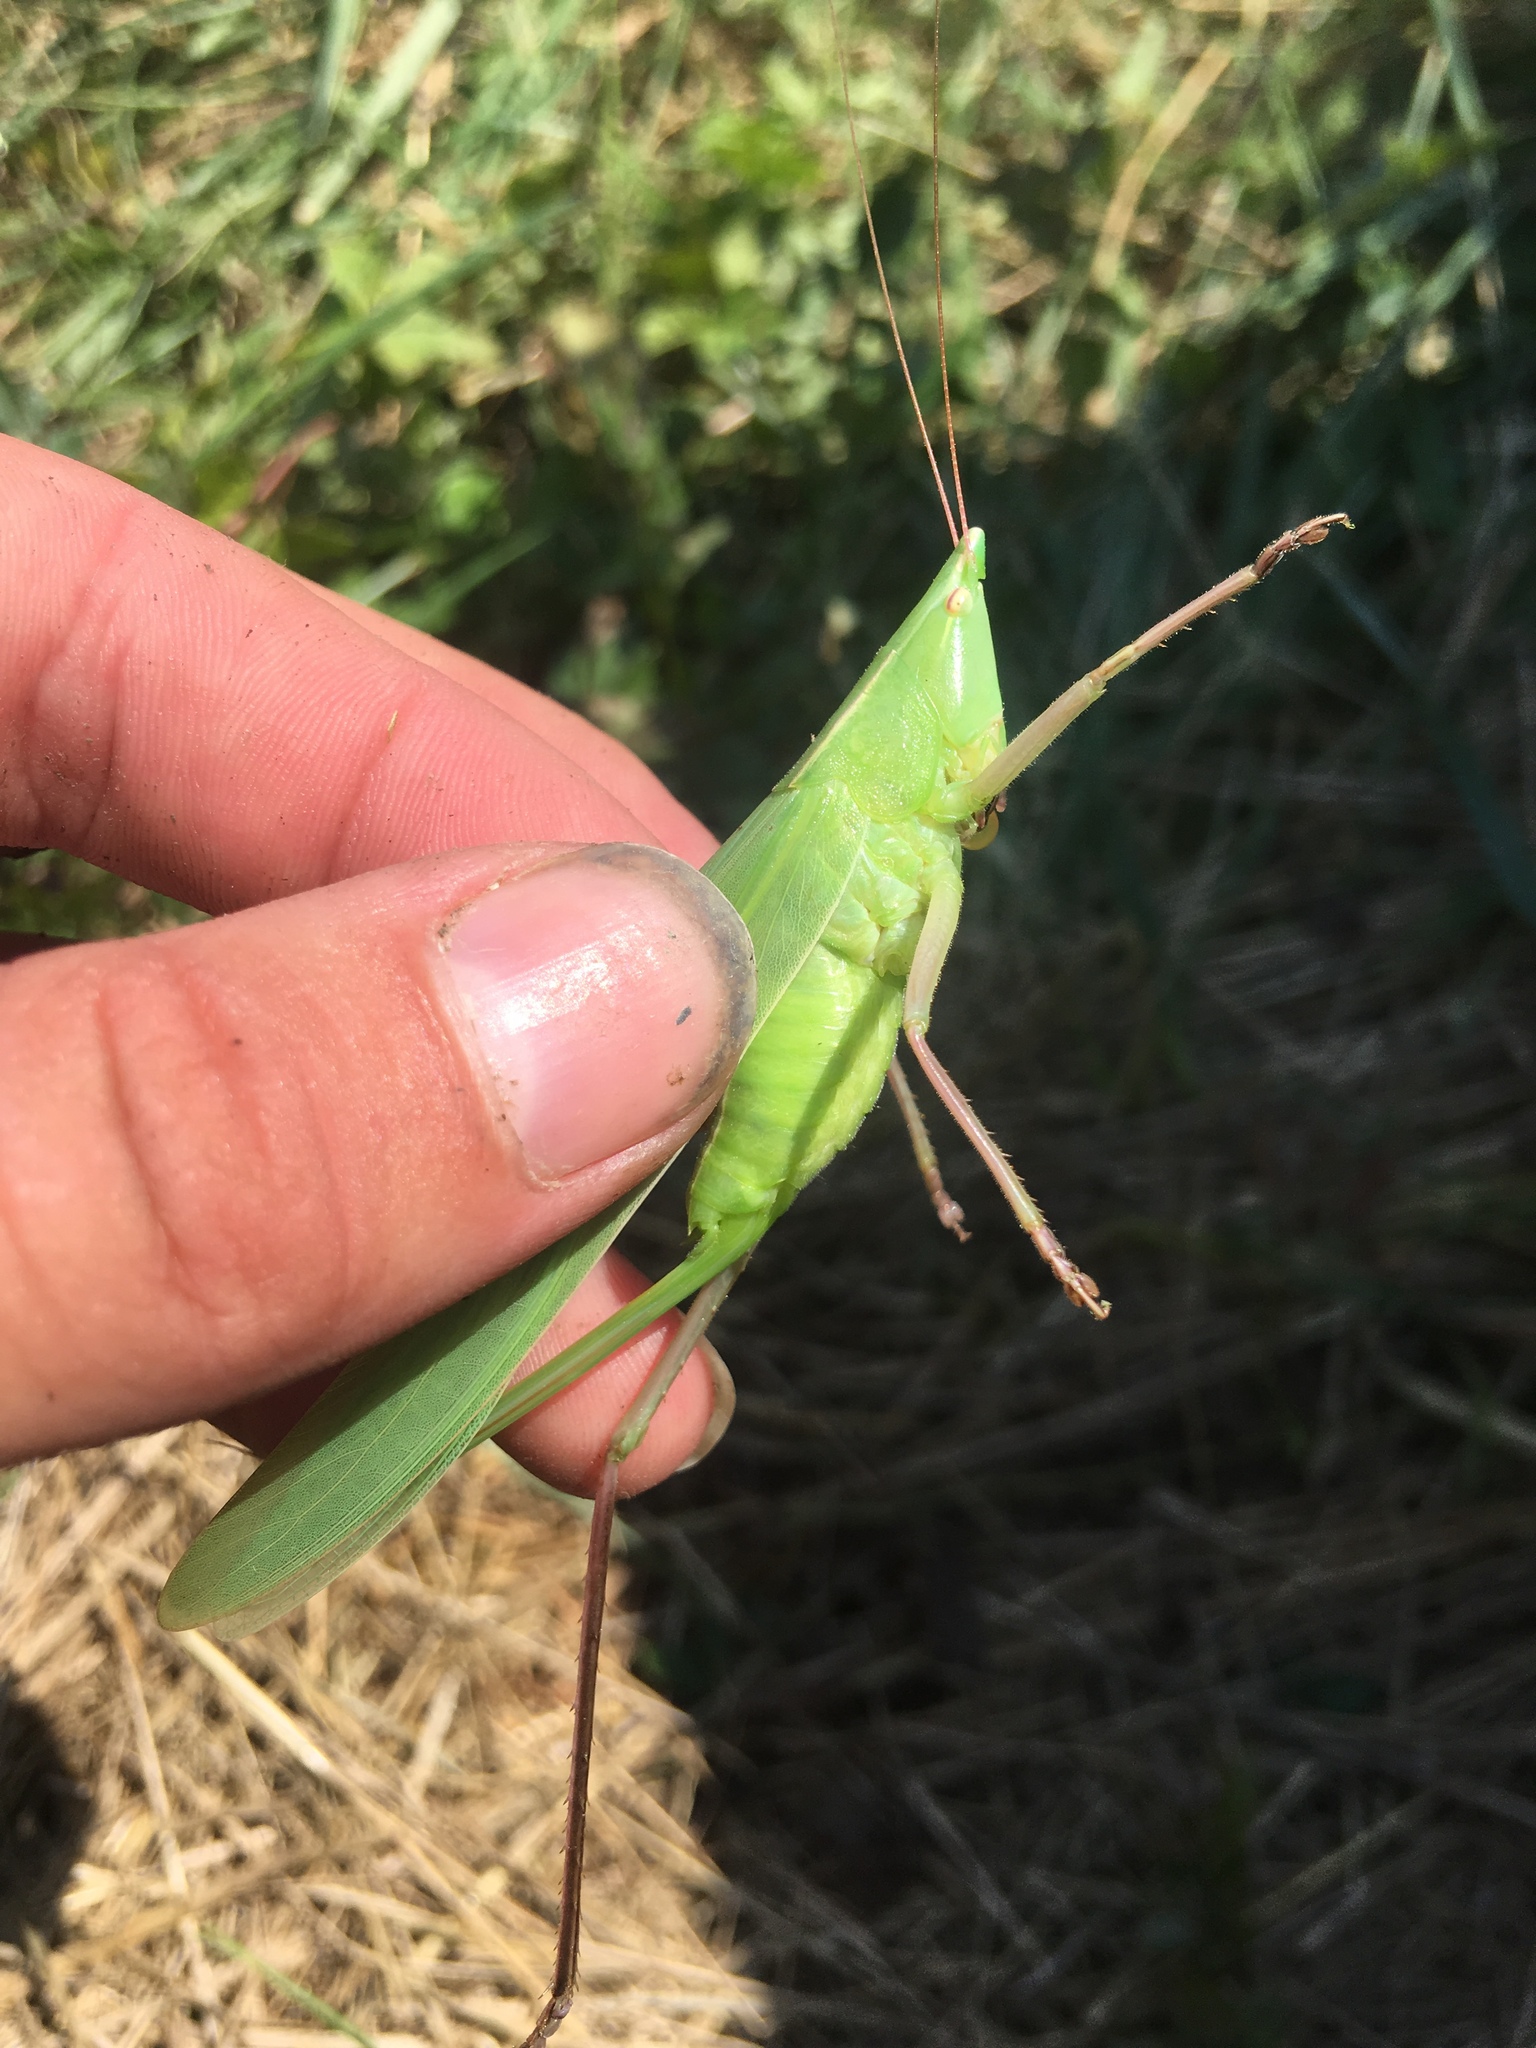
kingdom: Animalia
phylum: Arthropoda
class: Insecta
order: Orthoptera
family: Tettigoniidae
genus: Neoconocephalus
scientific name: Neoconocephalus robustus
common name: Robust conehead
